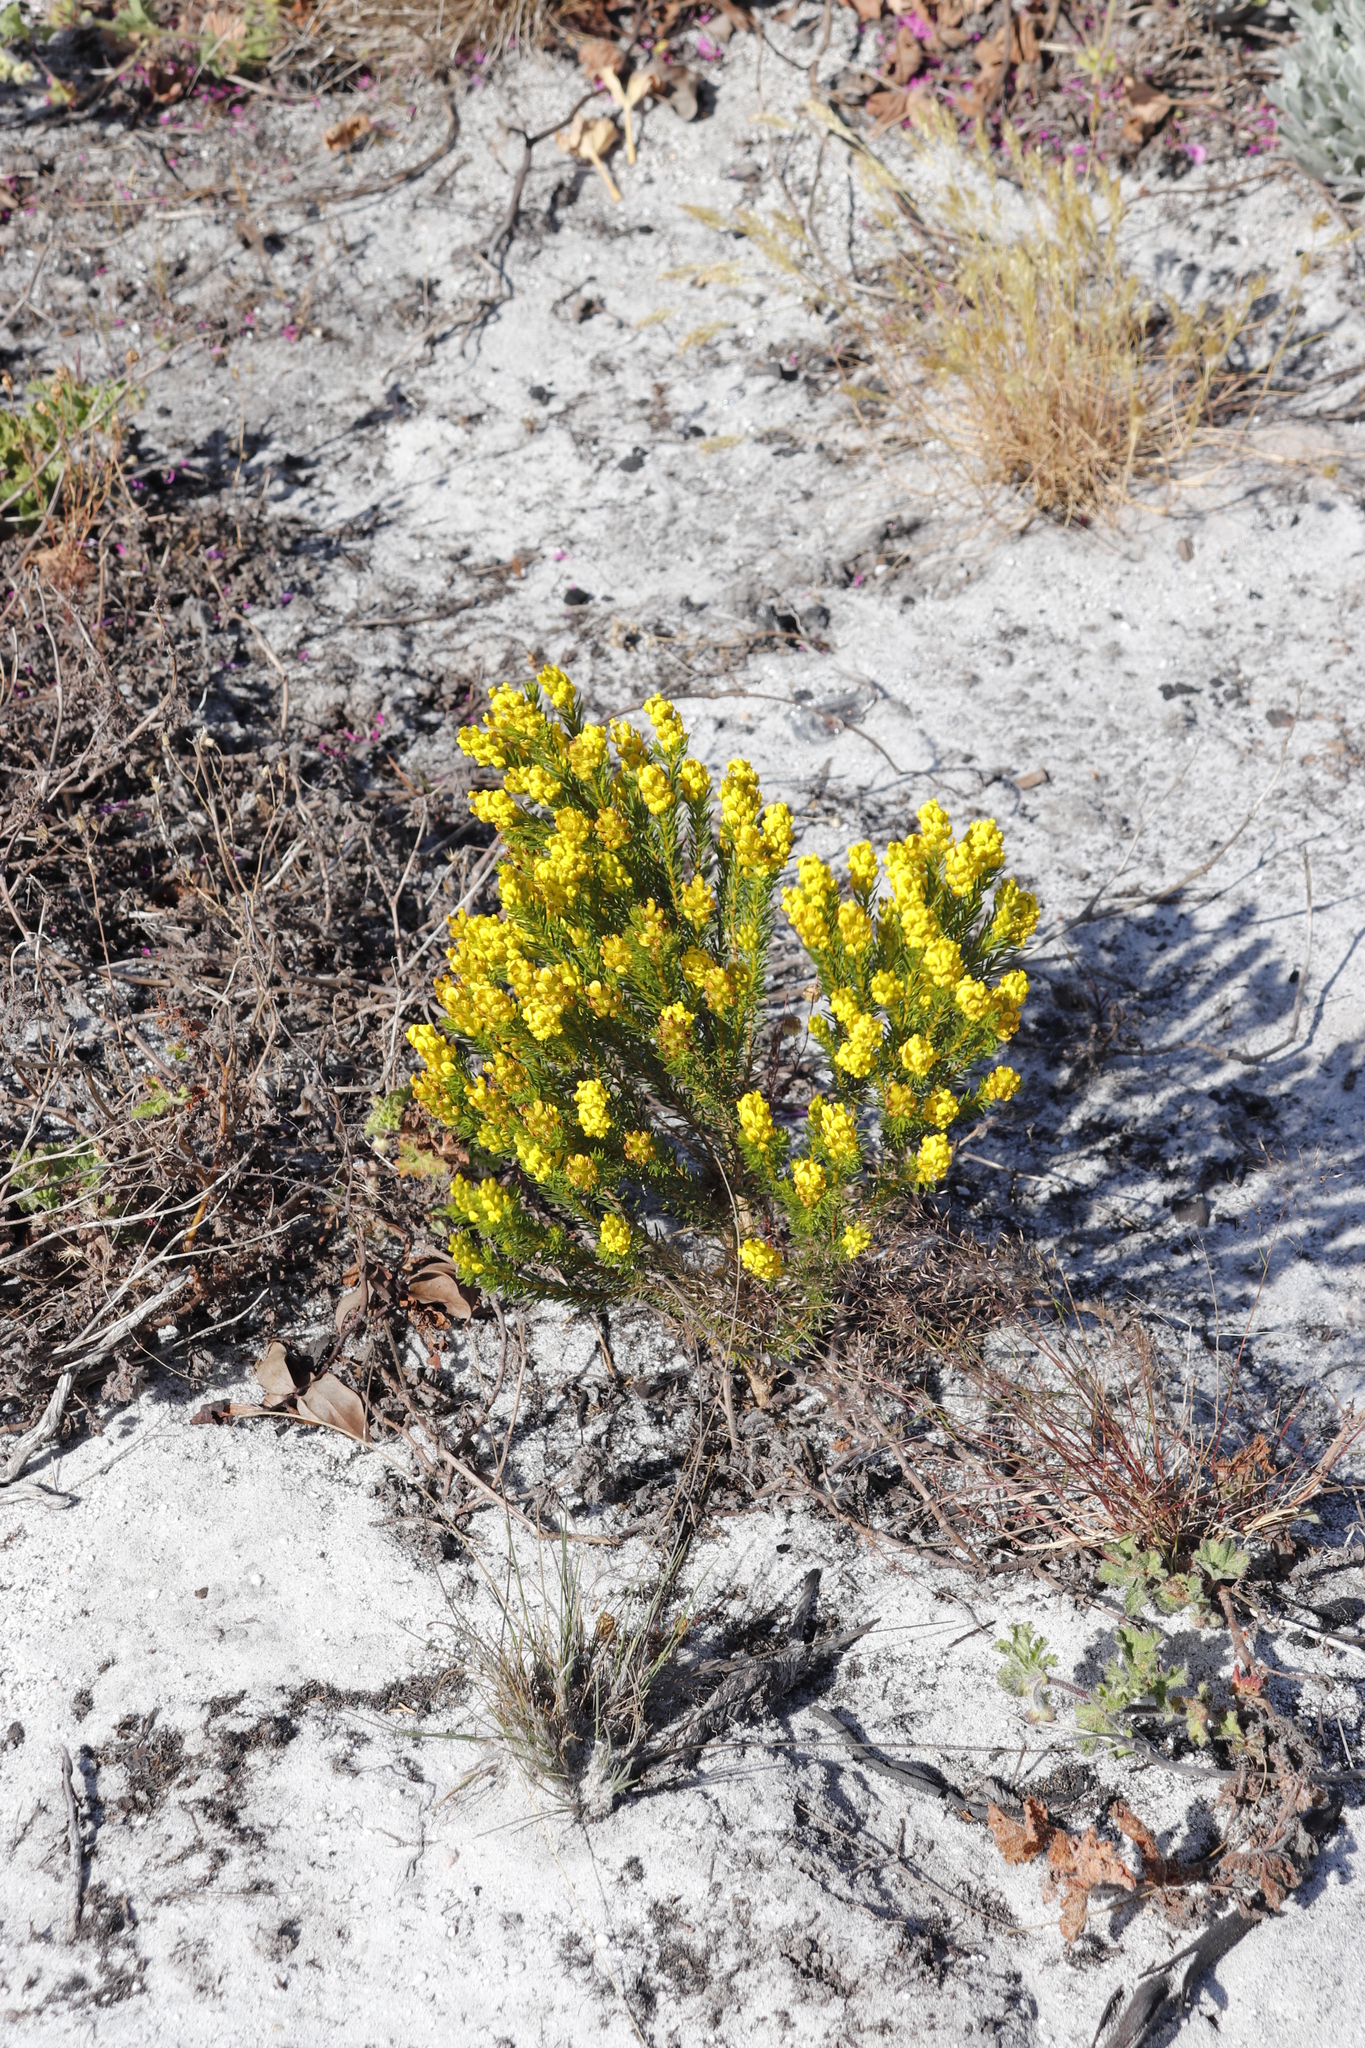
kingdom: Plantae
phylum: Tracheophyta
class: Magnoliopsida
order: Fabales
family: Fabaceae
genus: Aspalathus
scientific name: Aspalathus callosa
